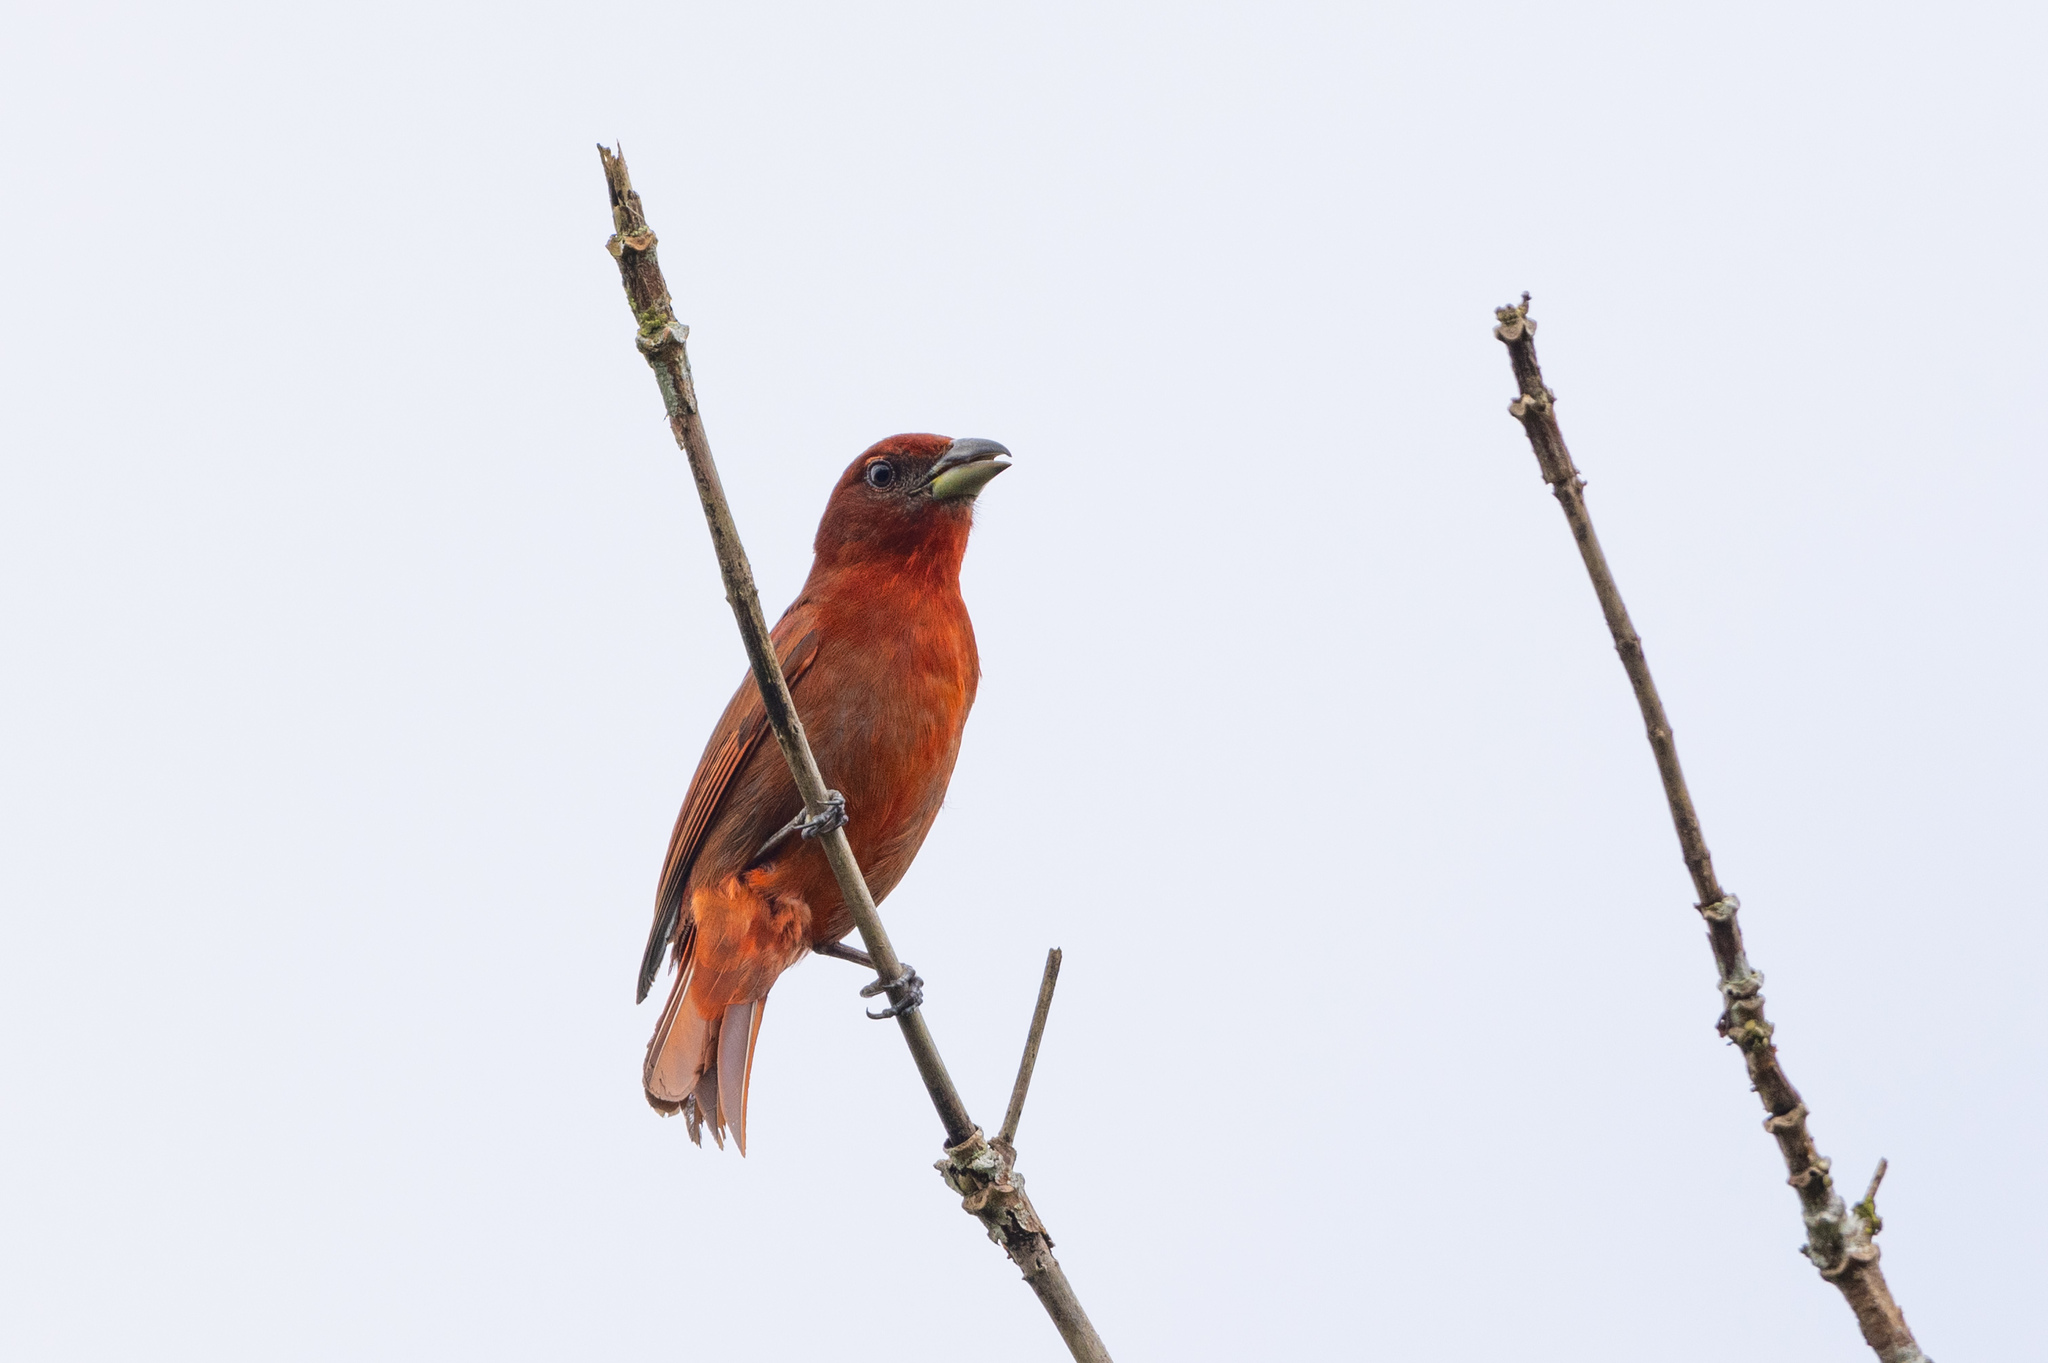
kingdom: Animalia
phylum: Chordata
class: Aves
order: Passeriformes
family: Cardinalidae
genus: Piranga
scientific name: Piranga flava
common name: Red tanager
